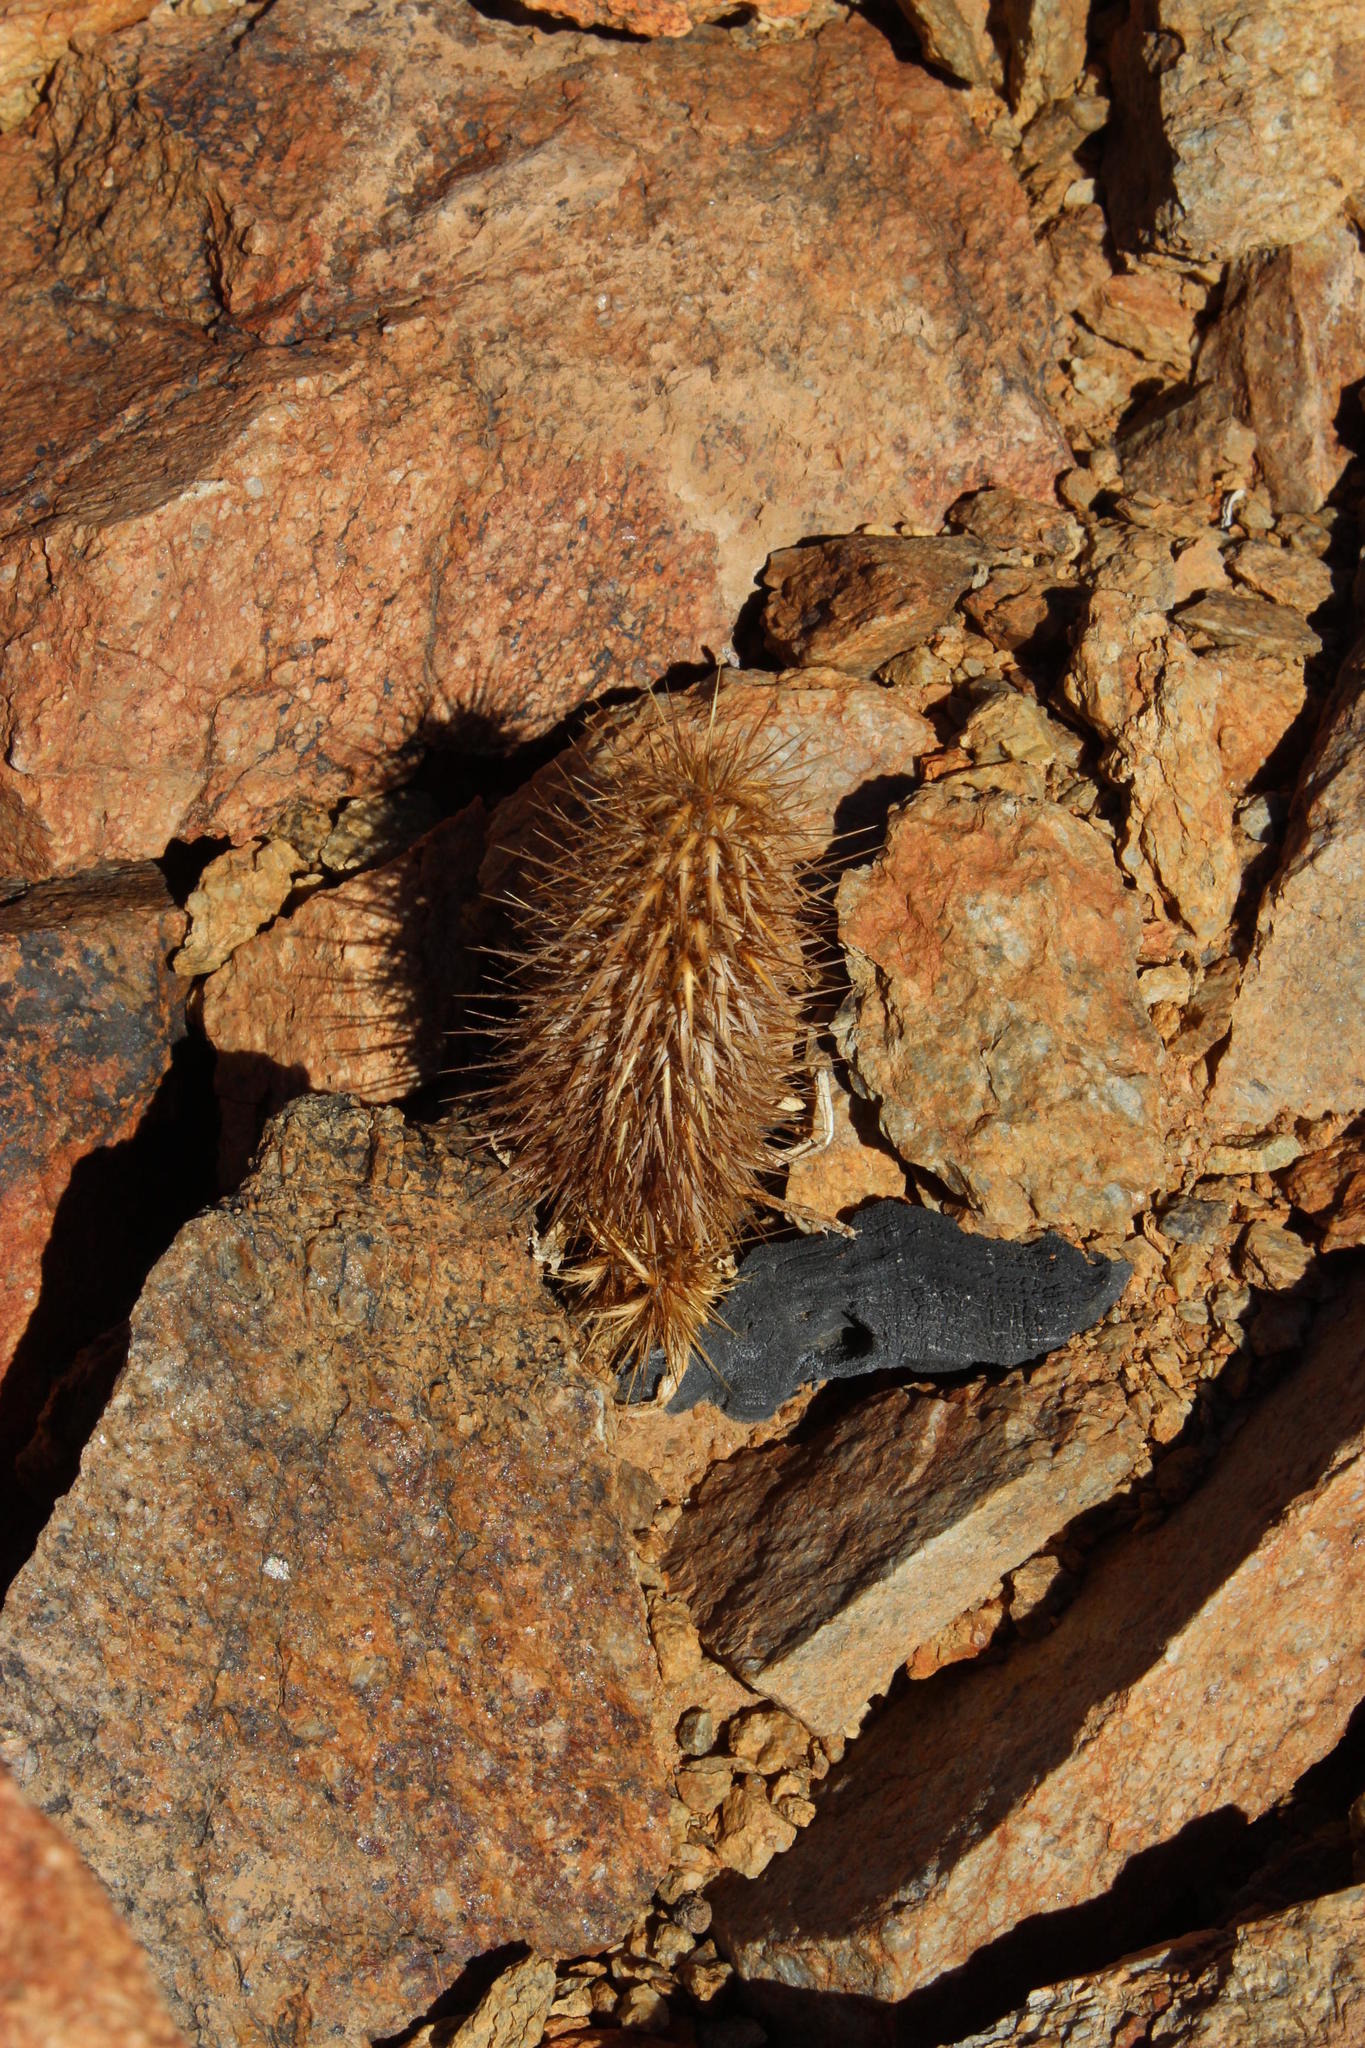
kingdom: Plantae
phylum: Tracheophyta
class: Magnoliopsida
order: Lamiales
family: Acanthaceae
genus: Acanthopsis
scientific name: Acanthopsis disperma
